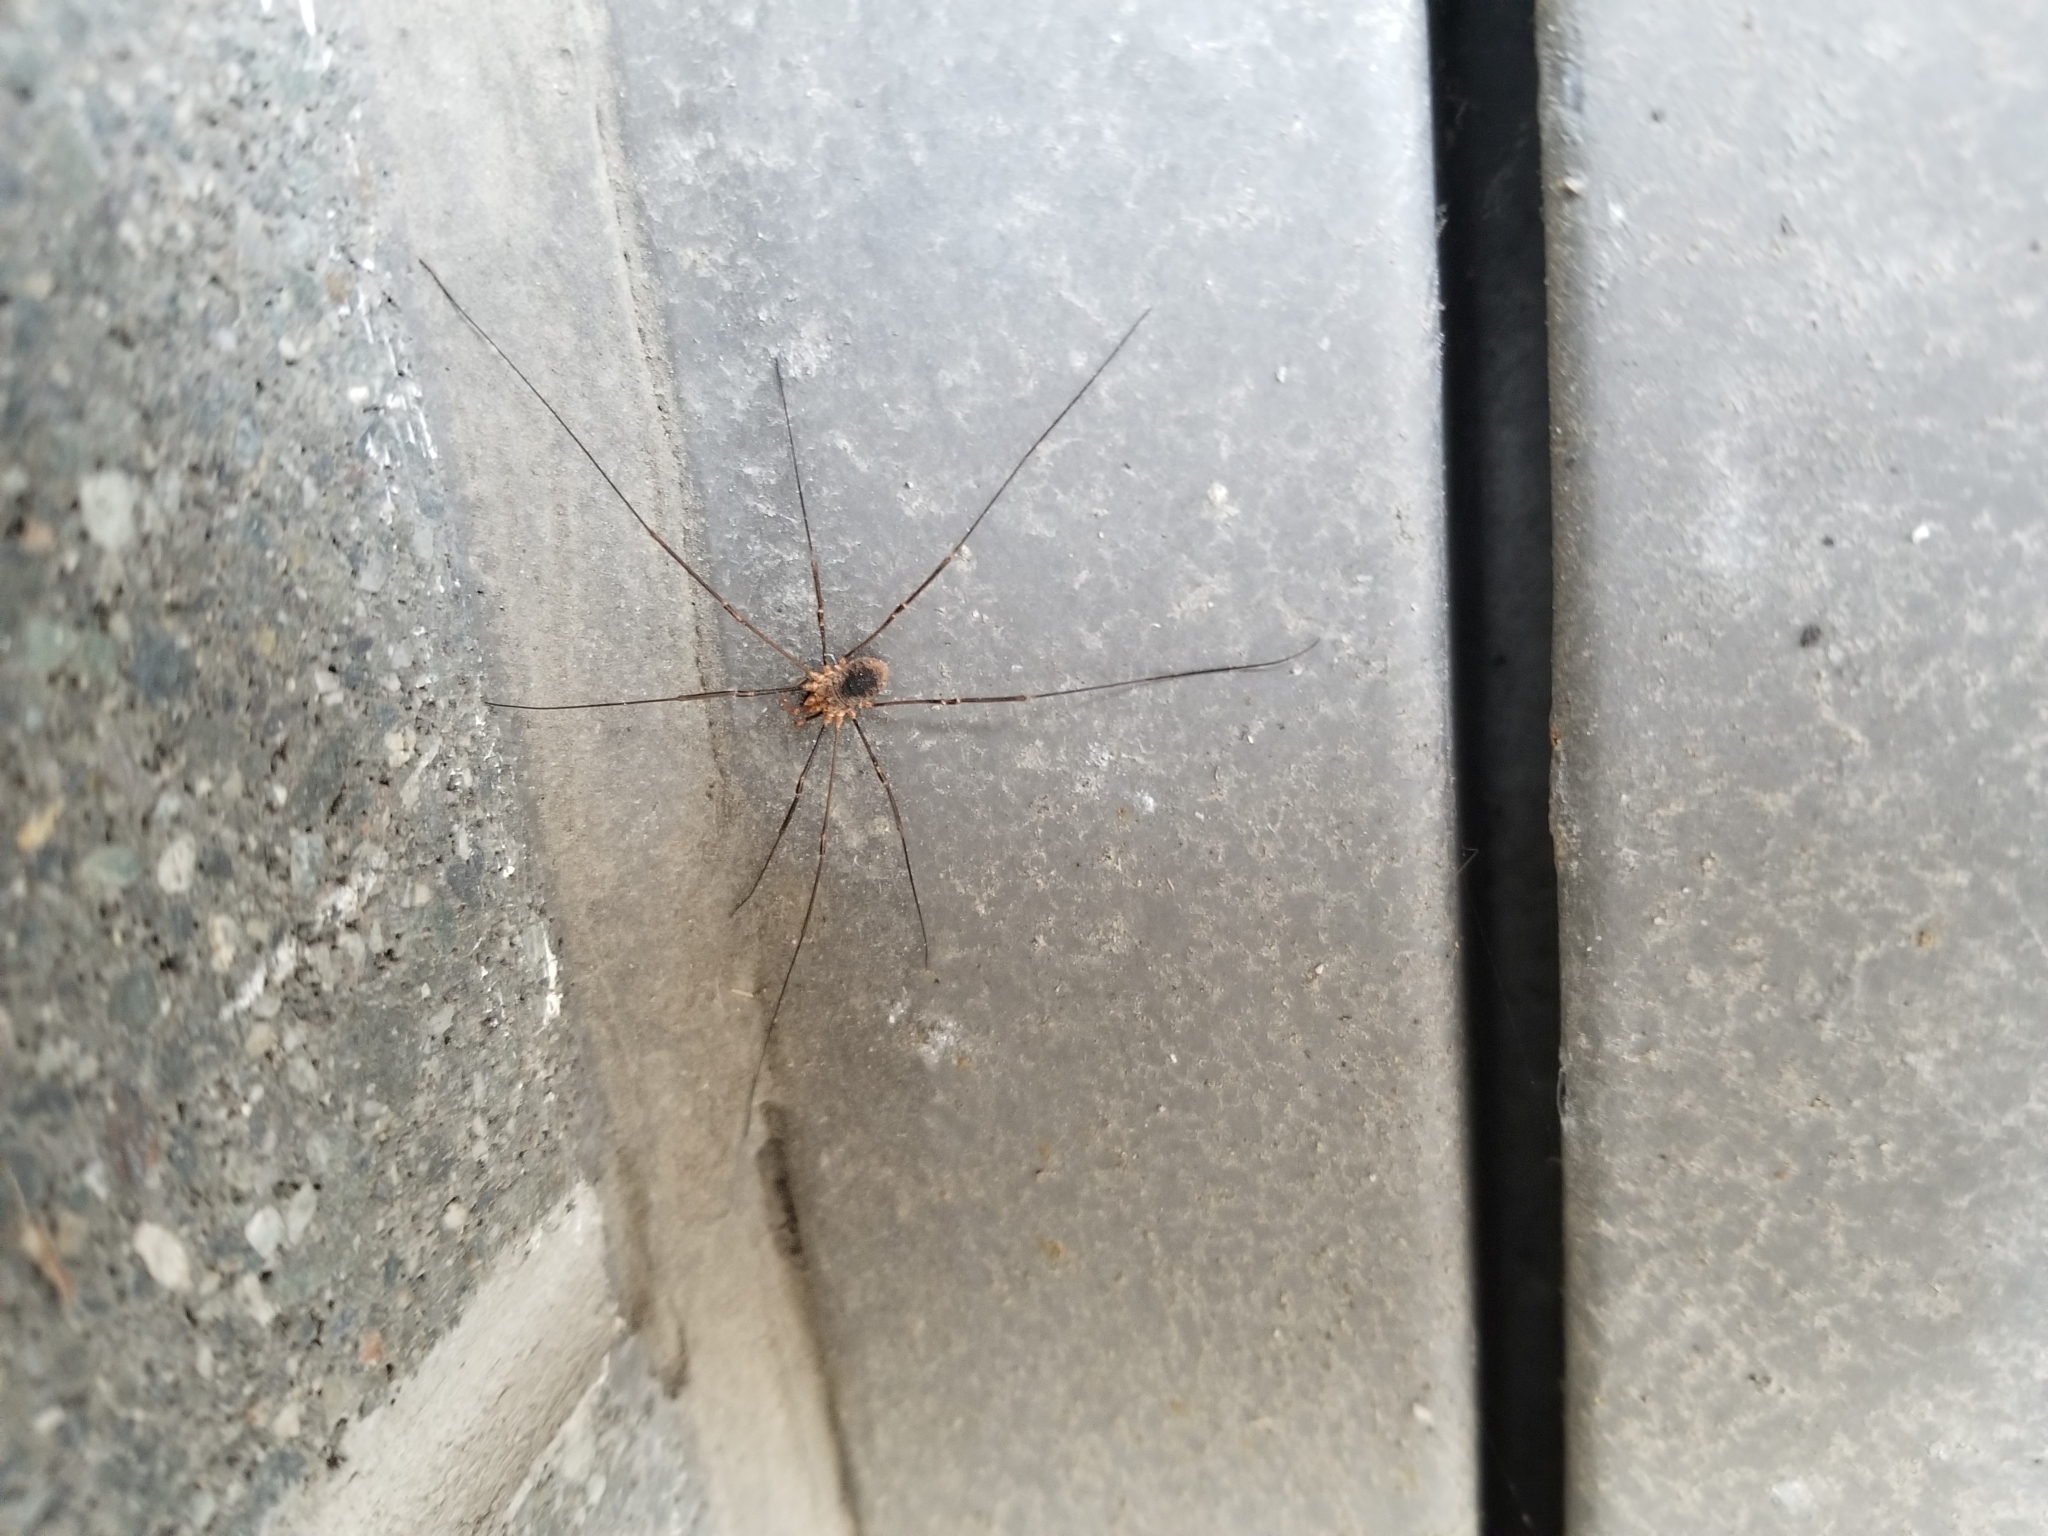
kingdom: Animalia
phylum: Arthropoda
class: Arachnida
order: Opiliones
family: Phalangiidae
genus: Phalangium
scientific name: Phalangium opilio
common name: Daddy longleg
